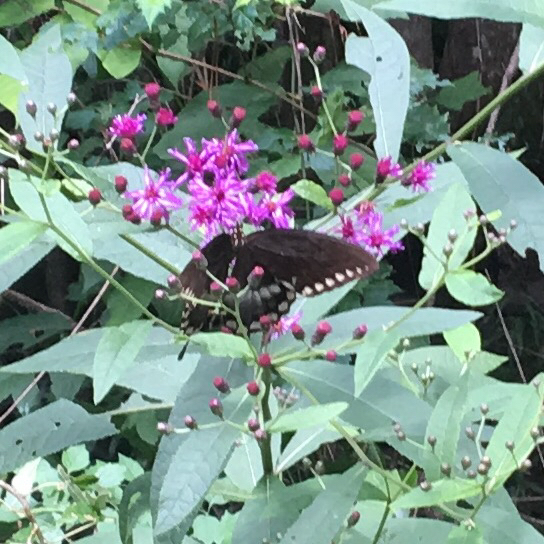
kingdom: Animalia
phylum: Arthropoda
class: Insecta
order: Lepidoptera
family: Papilionidae
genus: Papilio
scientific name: Papilio troilus
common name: Spicebush swallowtail
